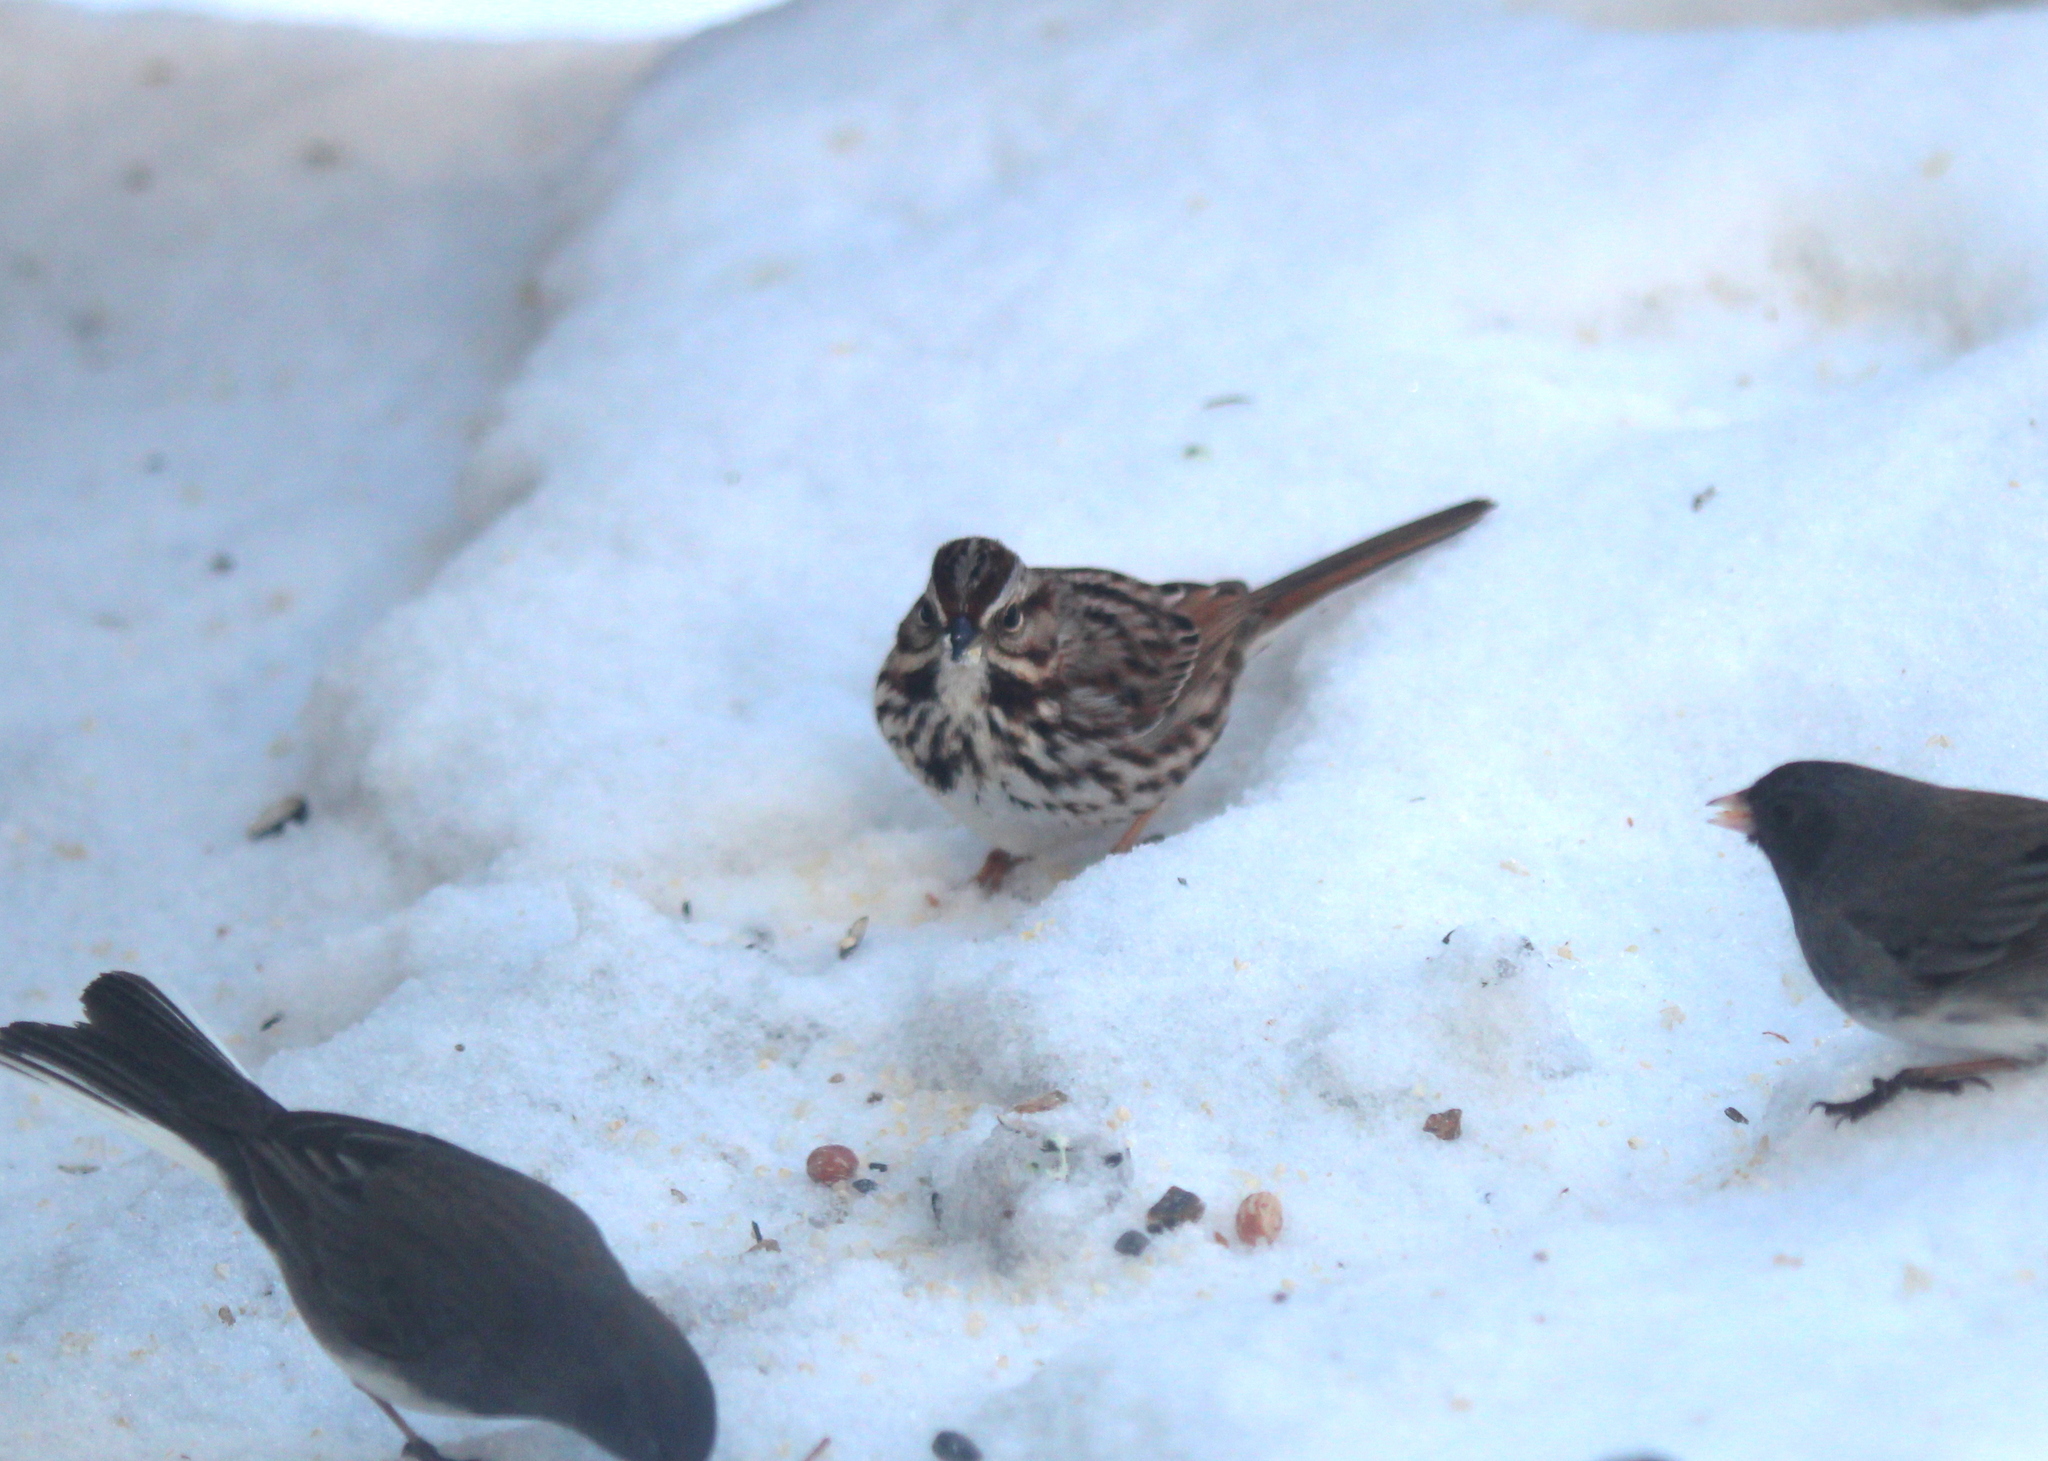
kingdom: Animalia
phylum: Chordata
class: Aves
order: Passeriformes
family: Passerellidae
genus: Melospiza
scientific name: Melospiza melodia
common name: Song sparrow
